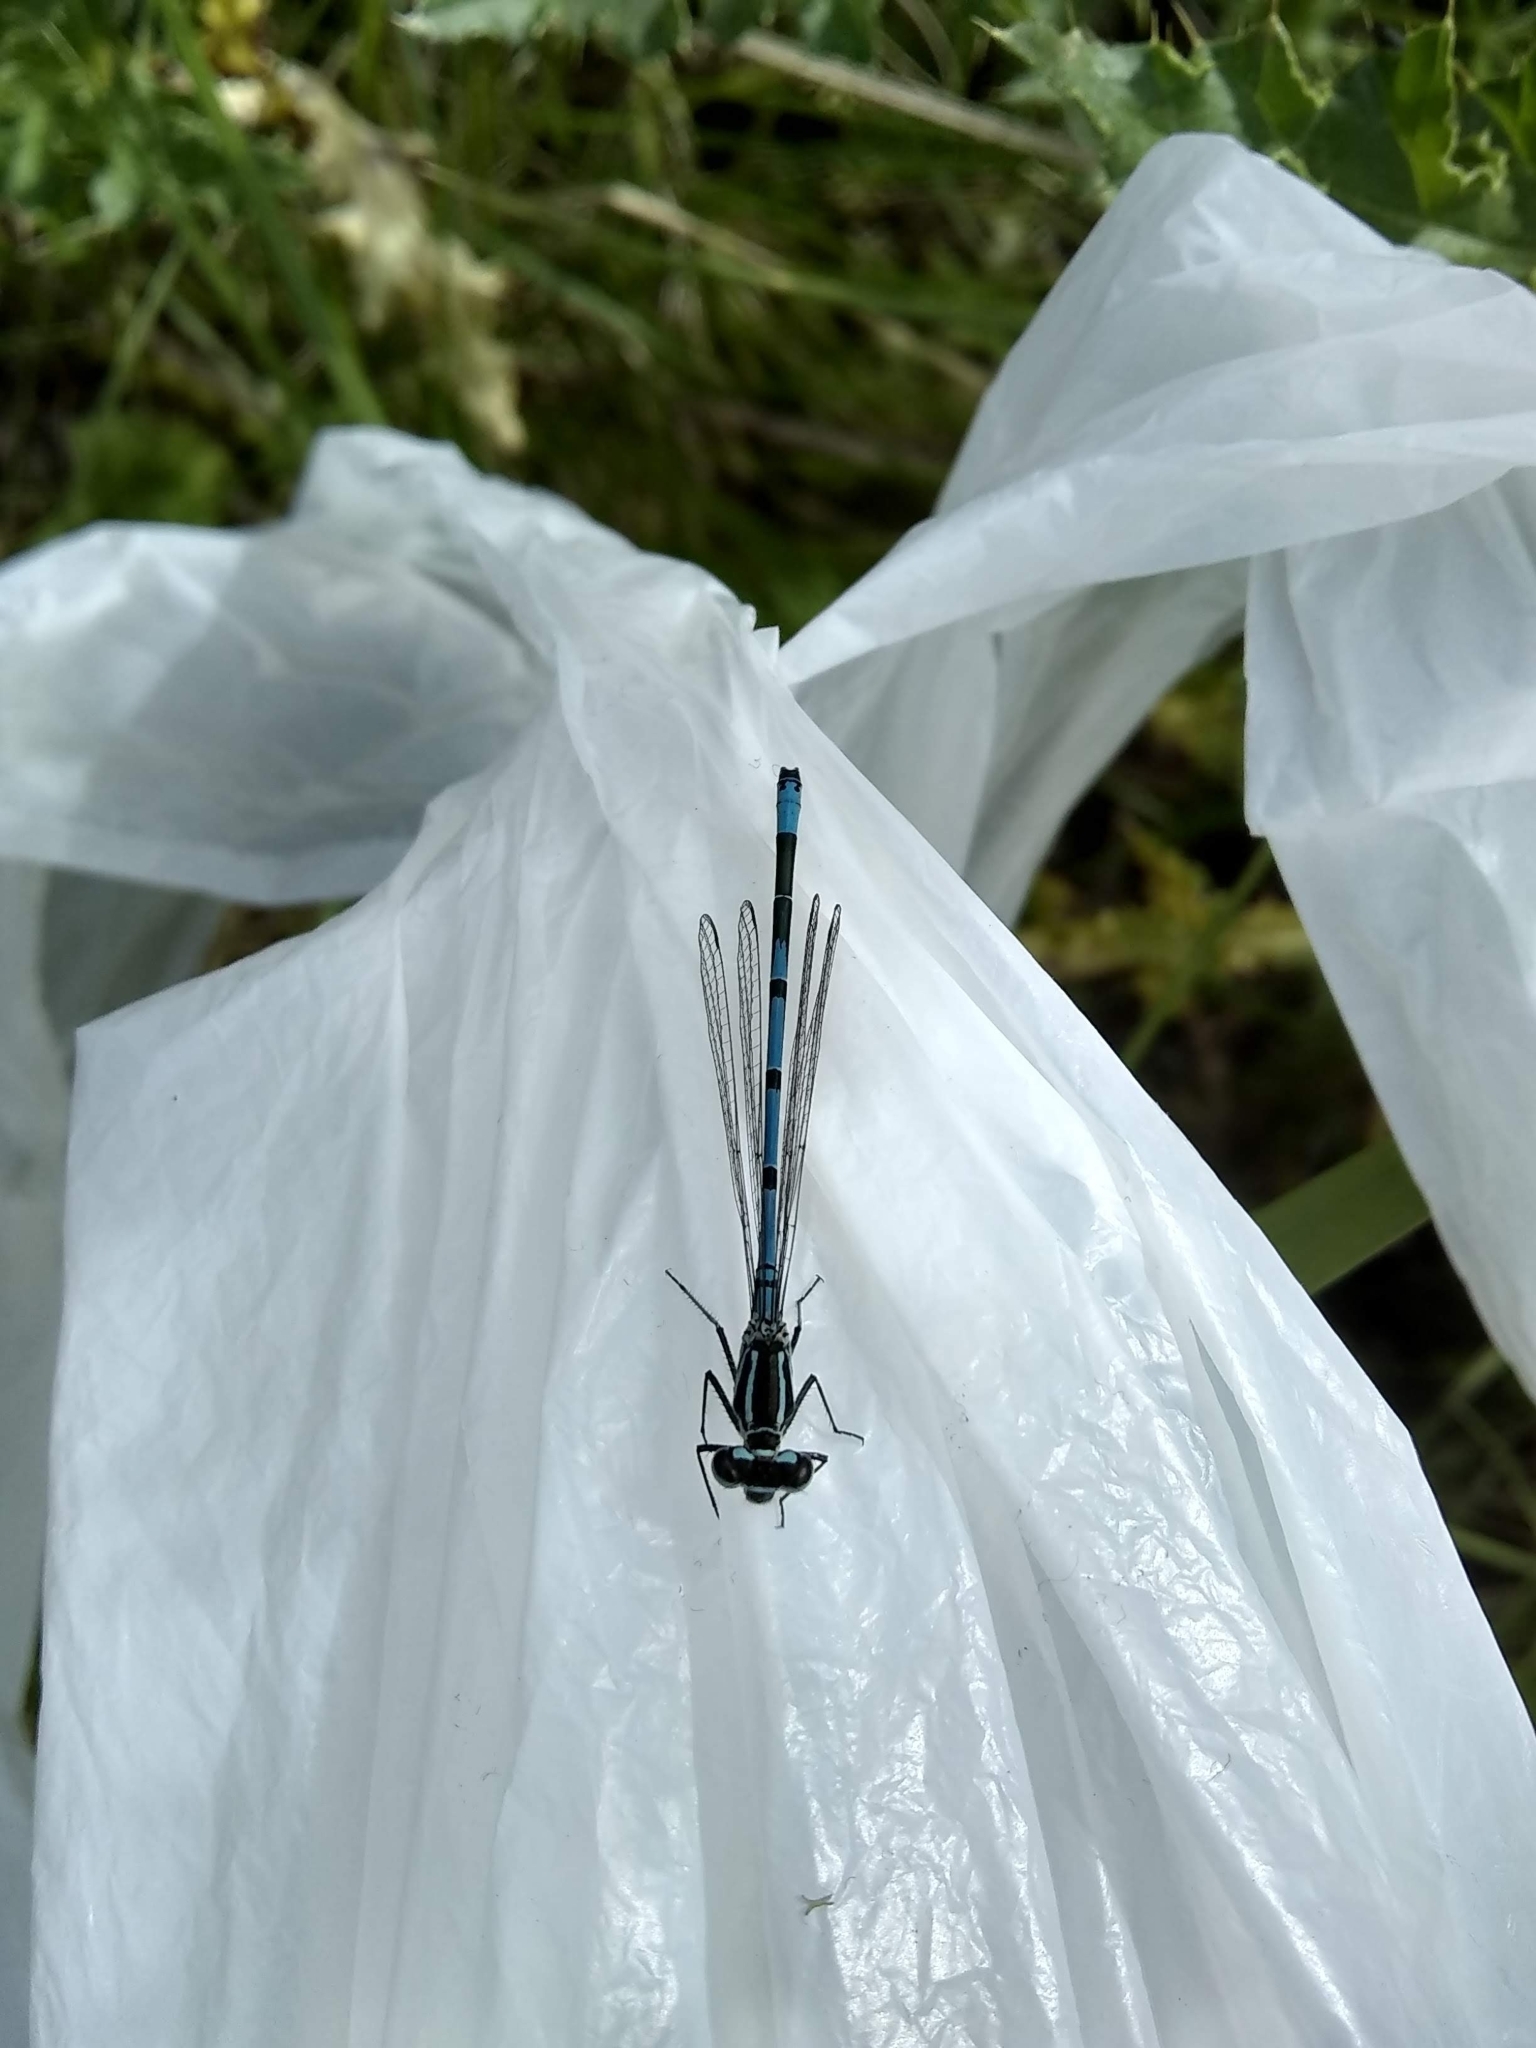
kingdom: Animalia
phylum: Arthropoda
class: Insecta
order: Odonata
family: Coenagrionidae
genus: Coenagrion
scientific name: Coenagrion puella
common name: Azure damselfly
